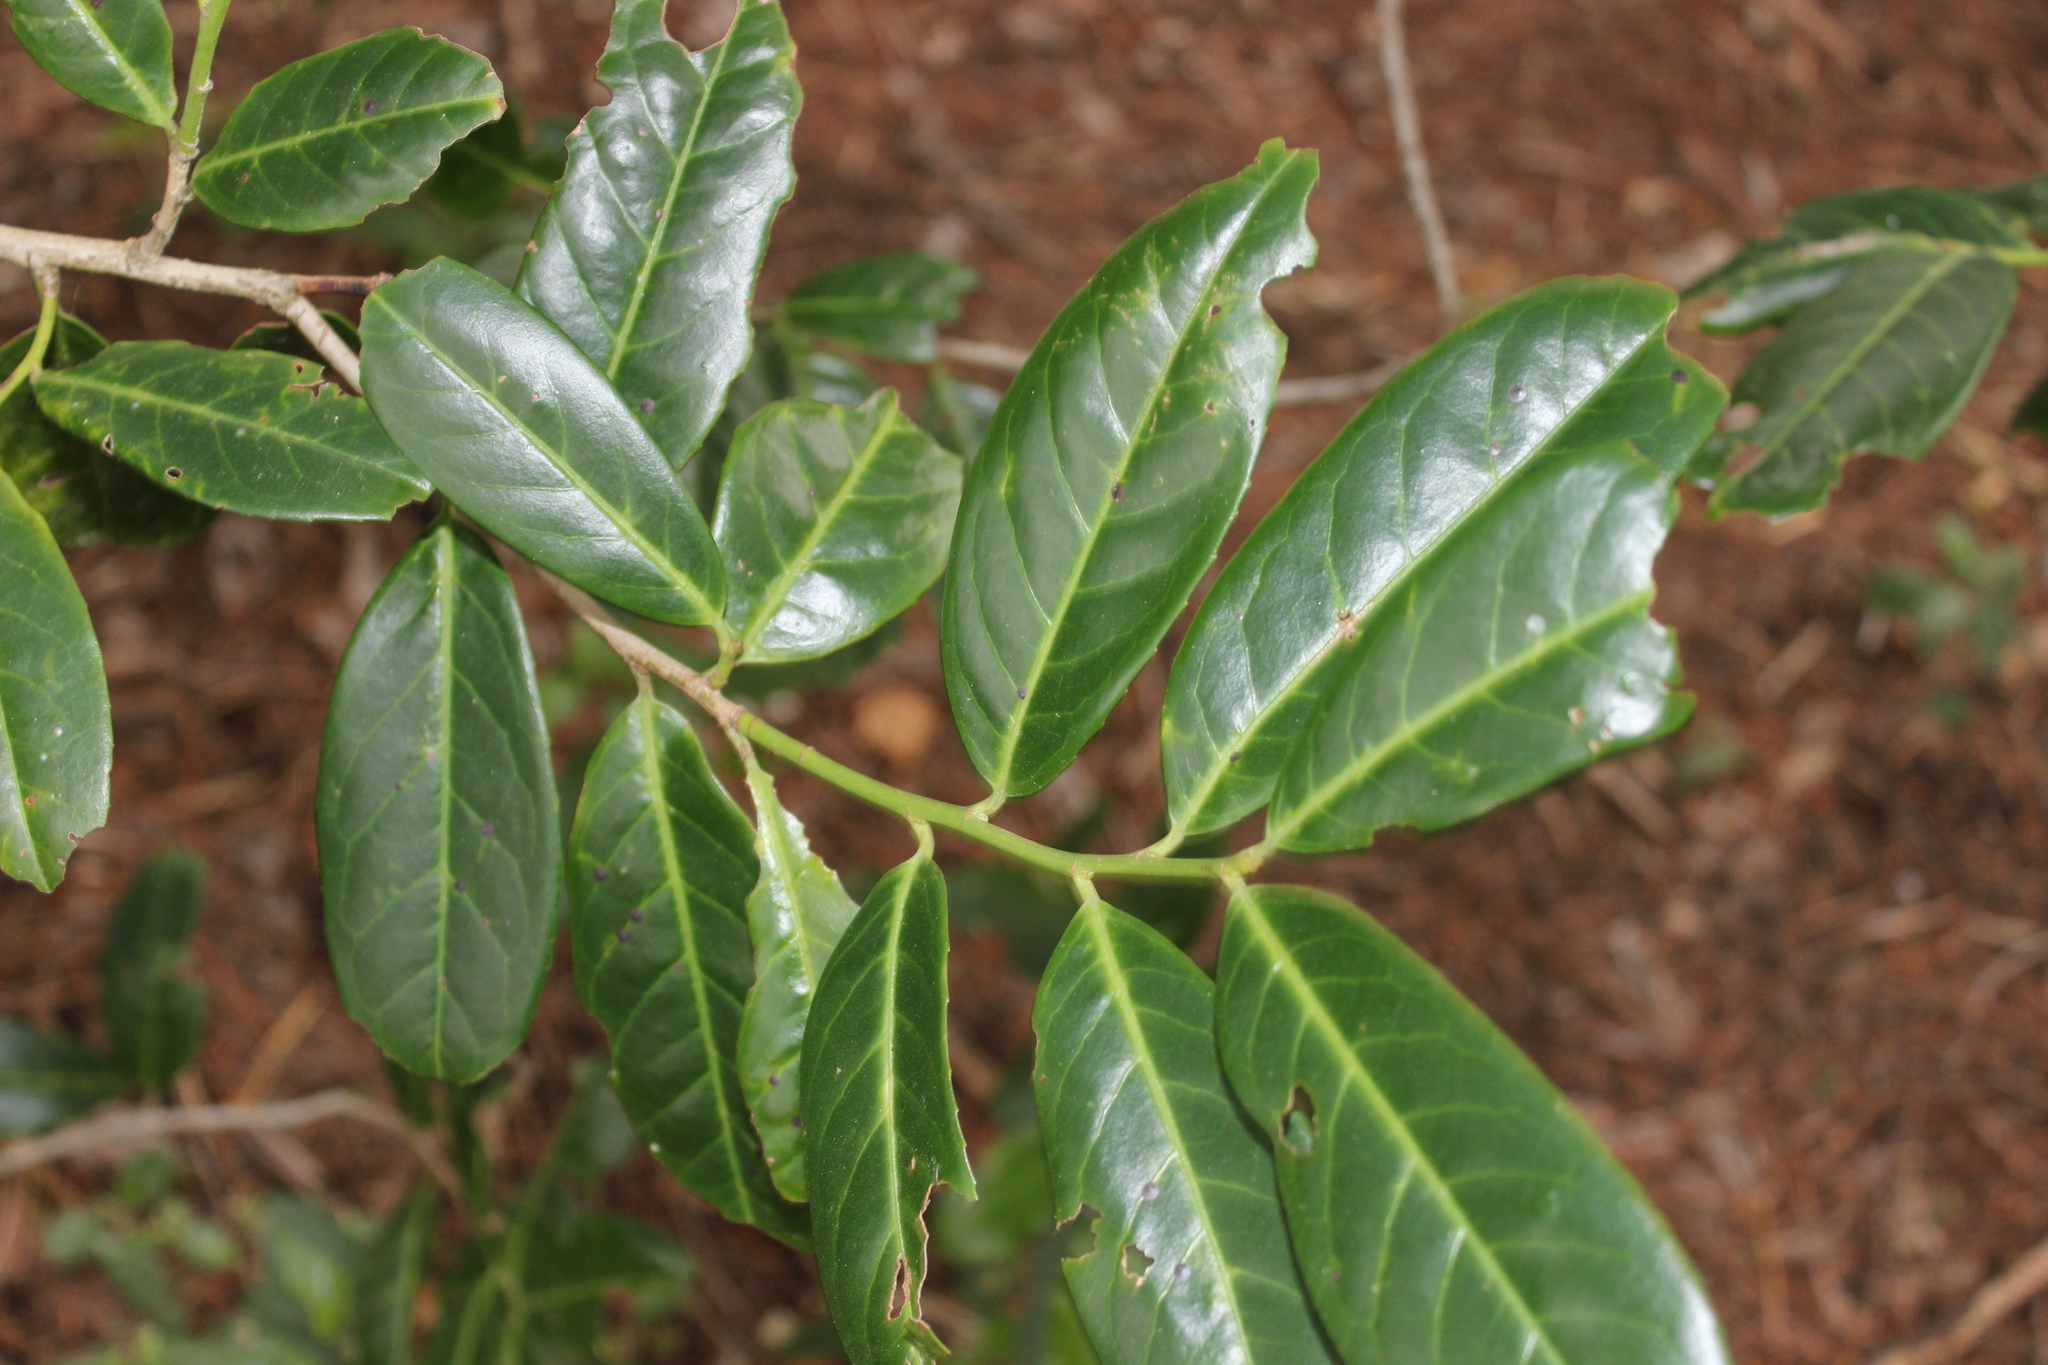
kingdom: Plantae
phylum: Tracheophyta
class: Magnoliopsida
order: Rosales
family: Rosaceae
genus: Prunus
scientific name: Prunus laurocerasus
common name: Cherry laurel
